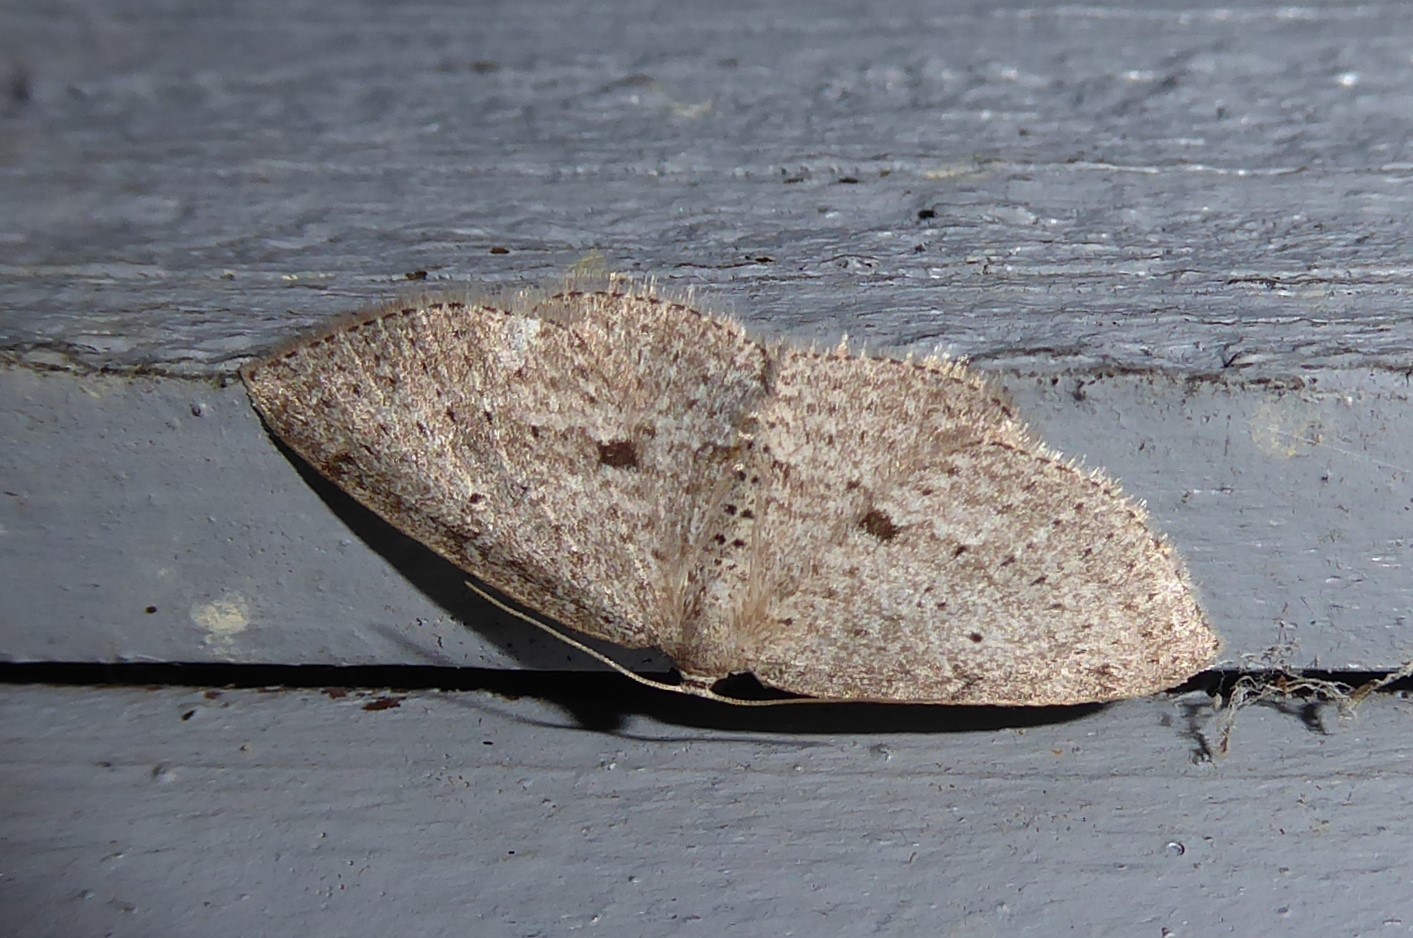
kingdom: Animalia
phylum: Arthropoda
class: Insecta
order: Lepidoptera
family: Geometridae
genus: Poecilasthena
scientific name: Poecilasthena schistaria
